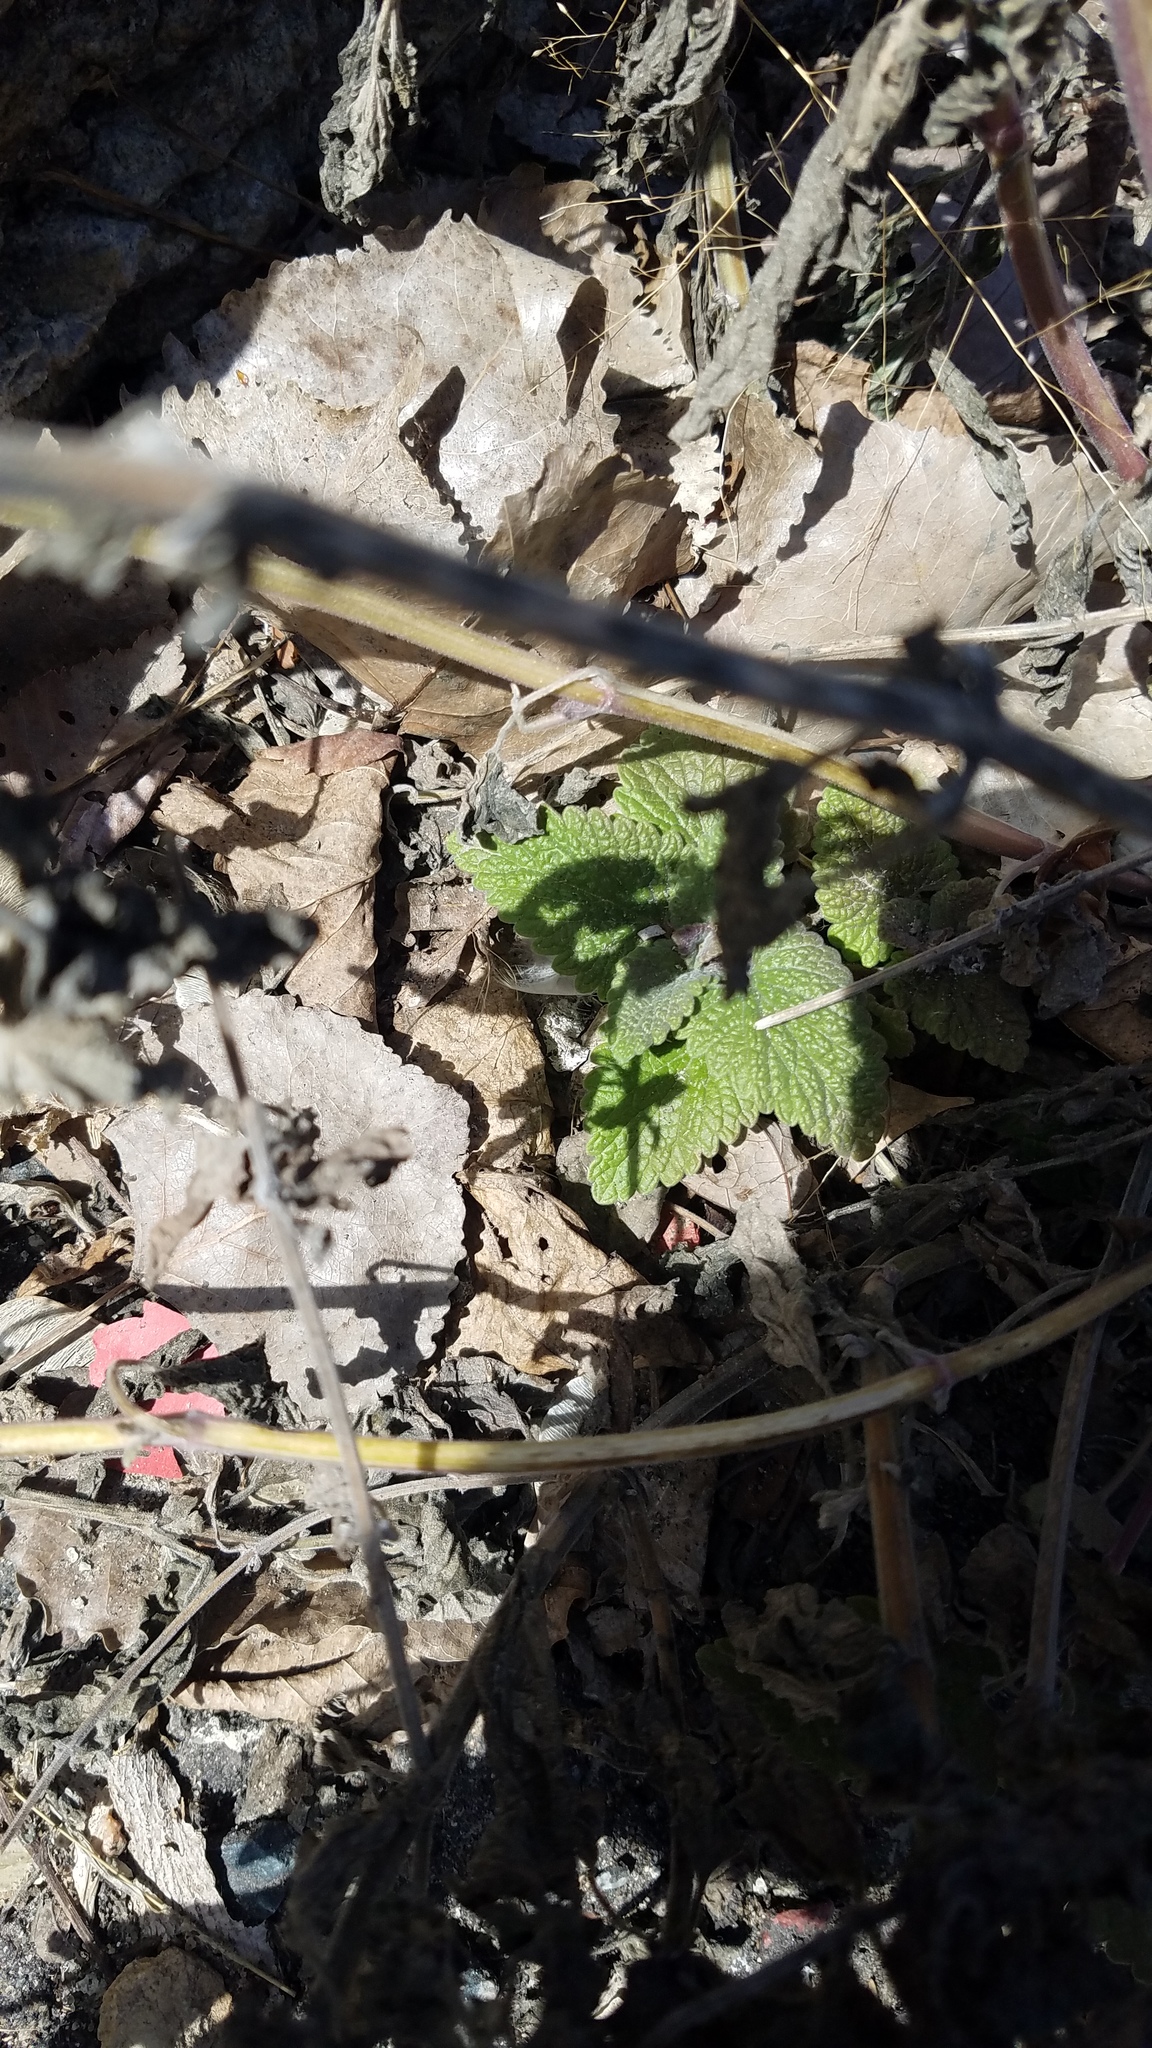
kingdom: Plantae
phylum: Tracheophyta
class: Magnoliopsida
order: Lamiales
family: Lamiaceae
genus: Leonurus
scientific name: Leonurus cardiaca
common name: Motherwort
